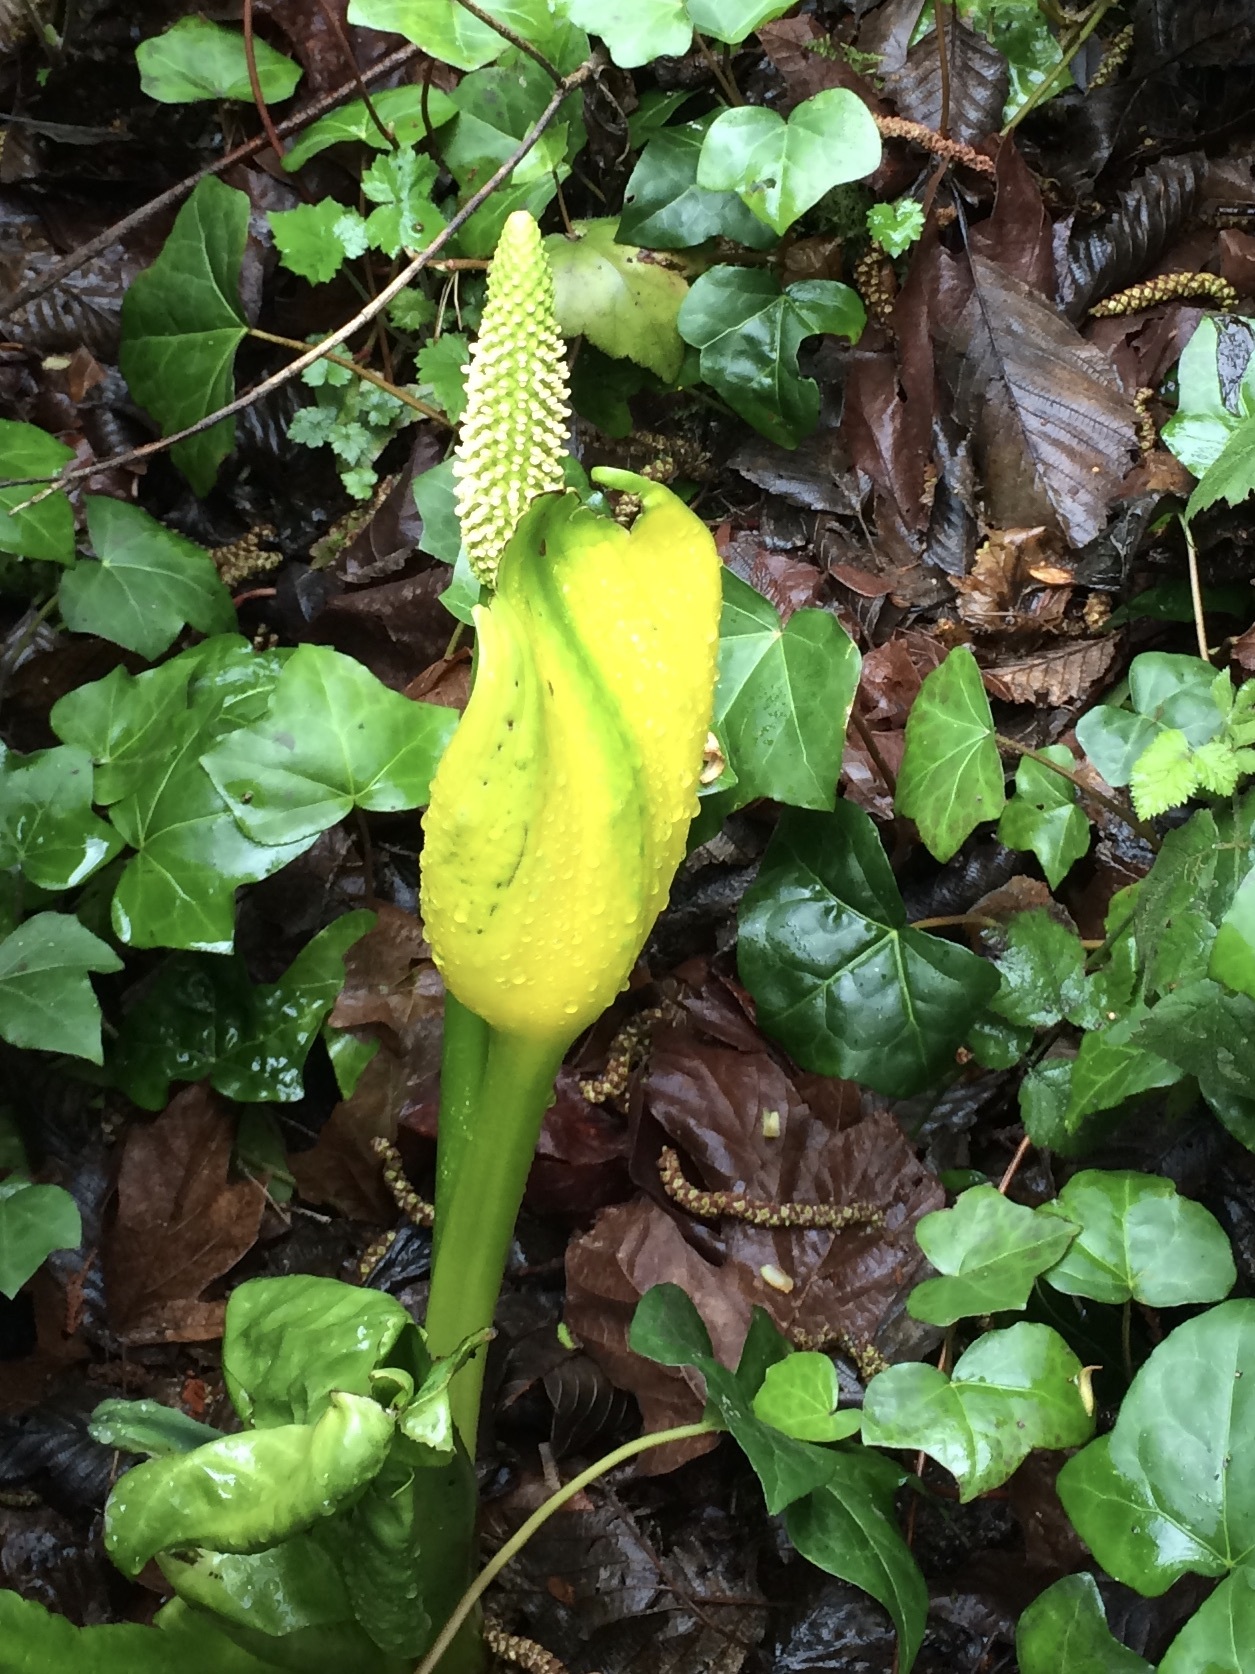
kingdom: Plantae
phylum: Tracheophyta
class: Liliopsida
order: Alismatales
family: Araceae
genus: Lysichiton
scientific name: Lysichiton americanus
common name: American skunk cabbage
